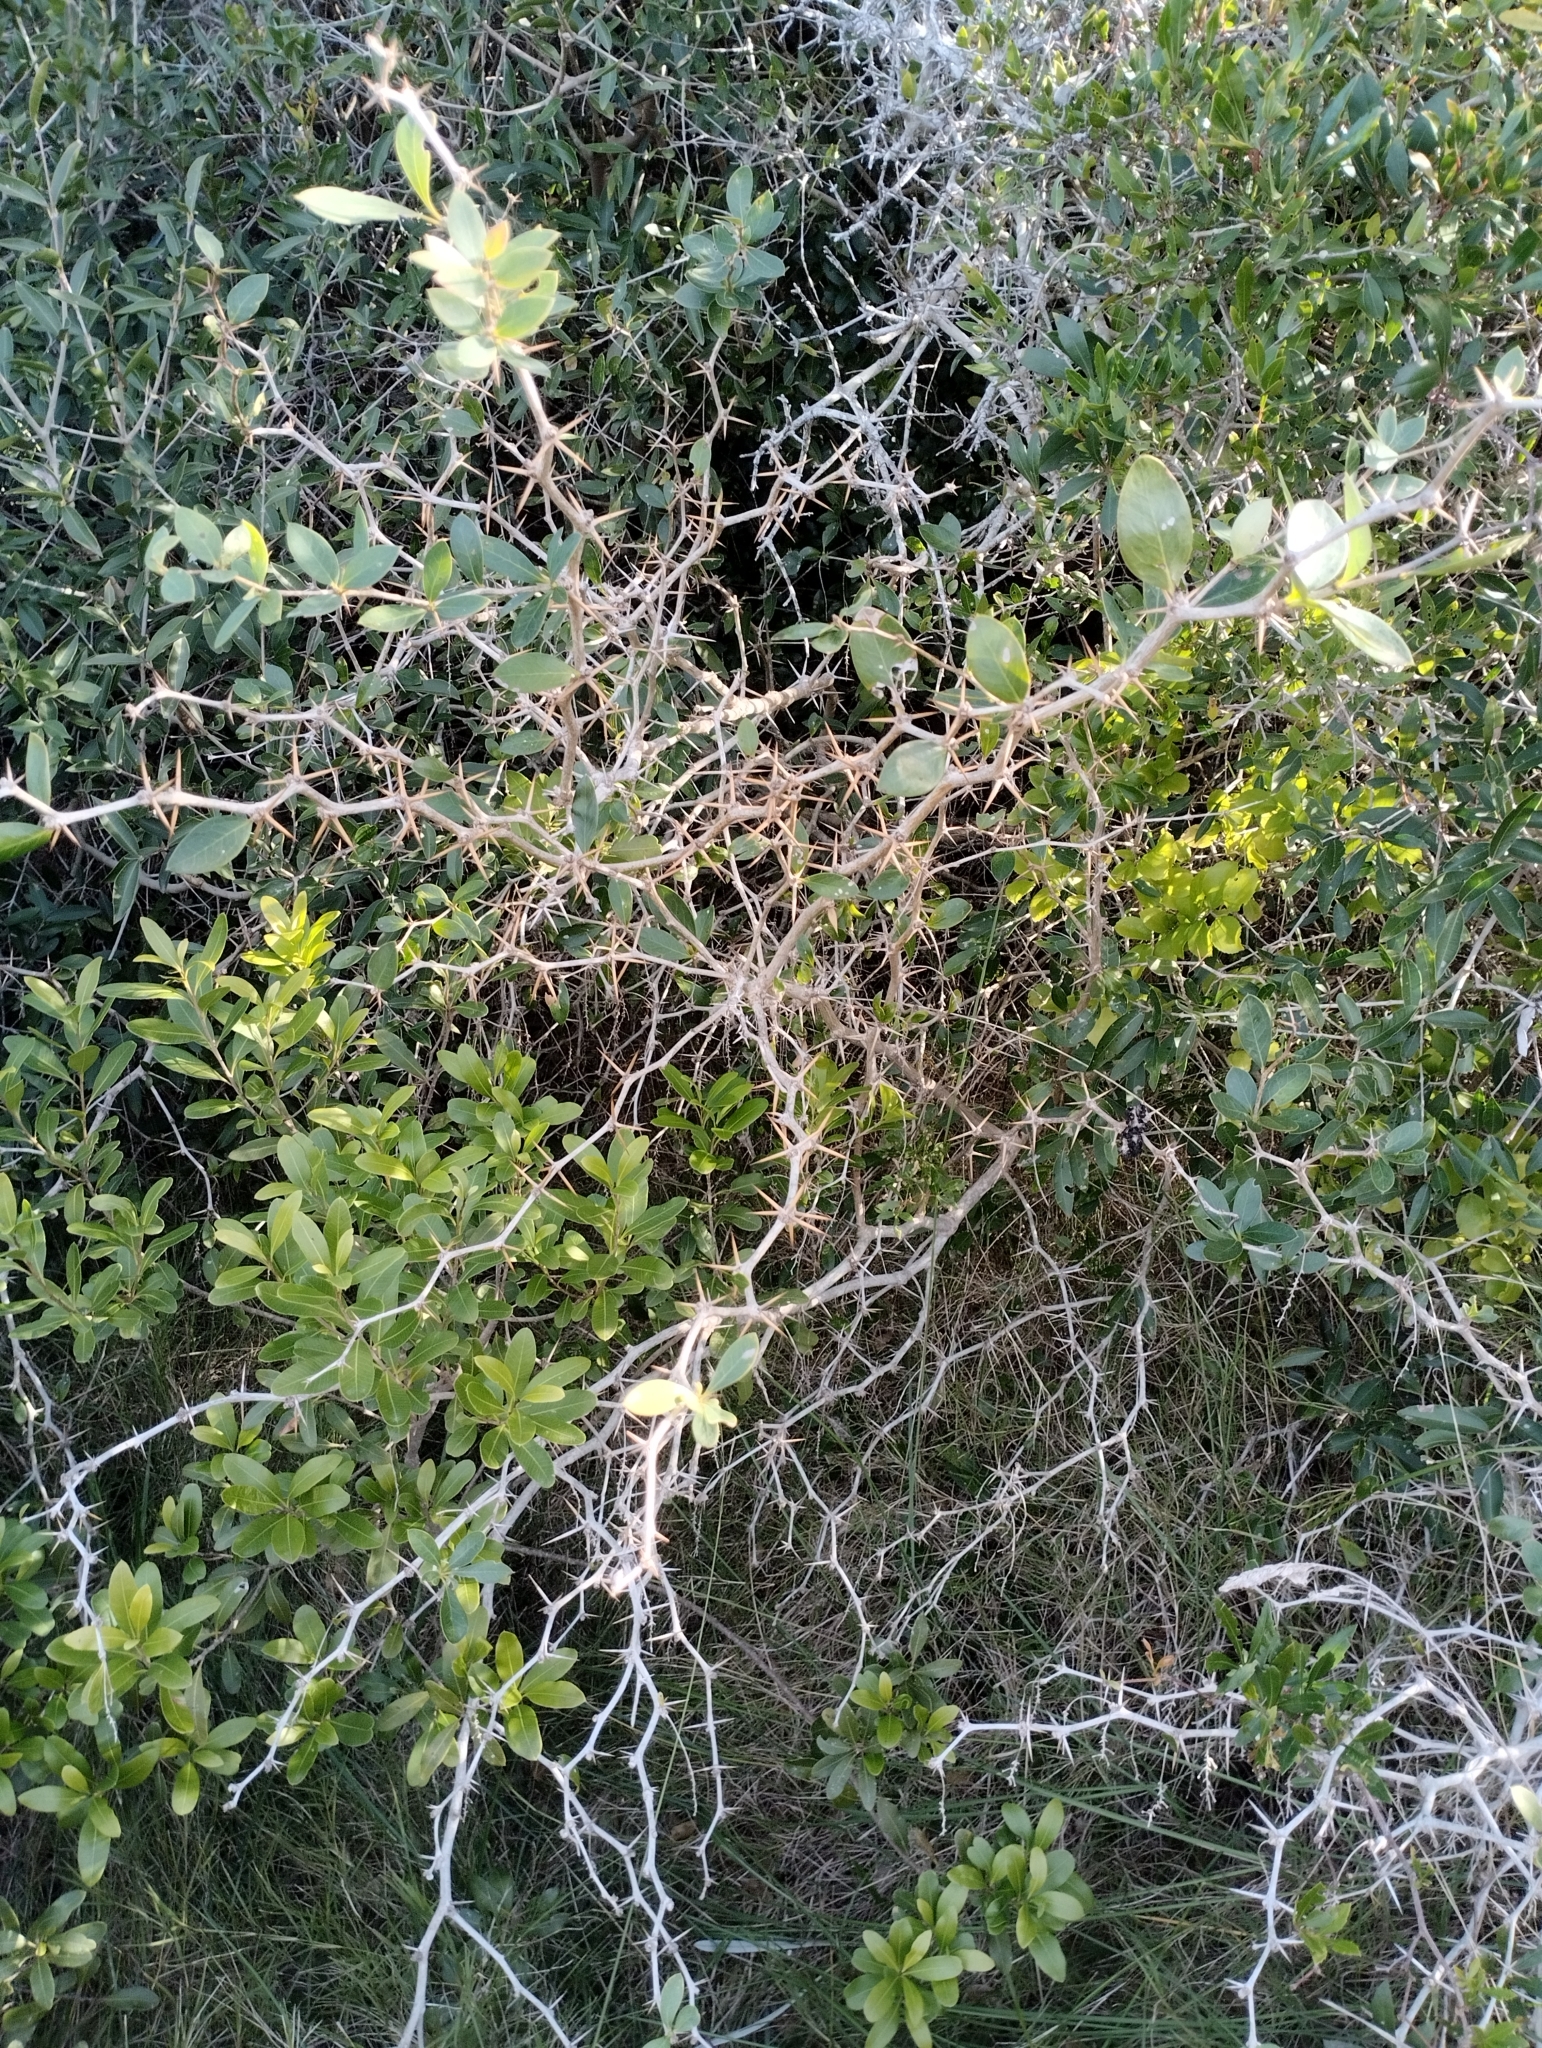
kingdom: Plantae
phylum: Tracheophyta
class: Magnoliopsida
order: Ranunculales
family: Berberidaceae
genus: Berberis
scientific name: Berberis laurina
